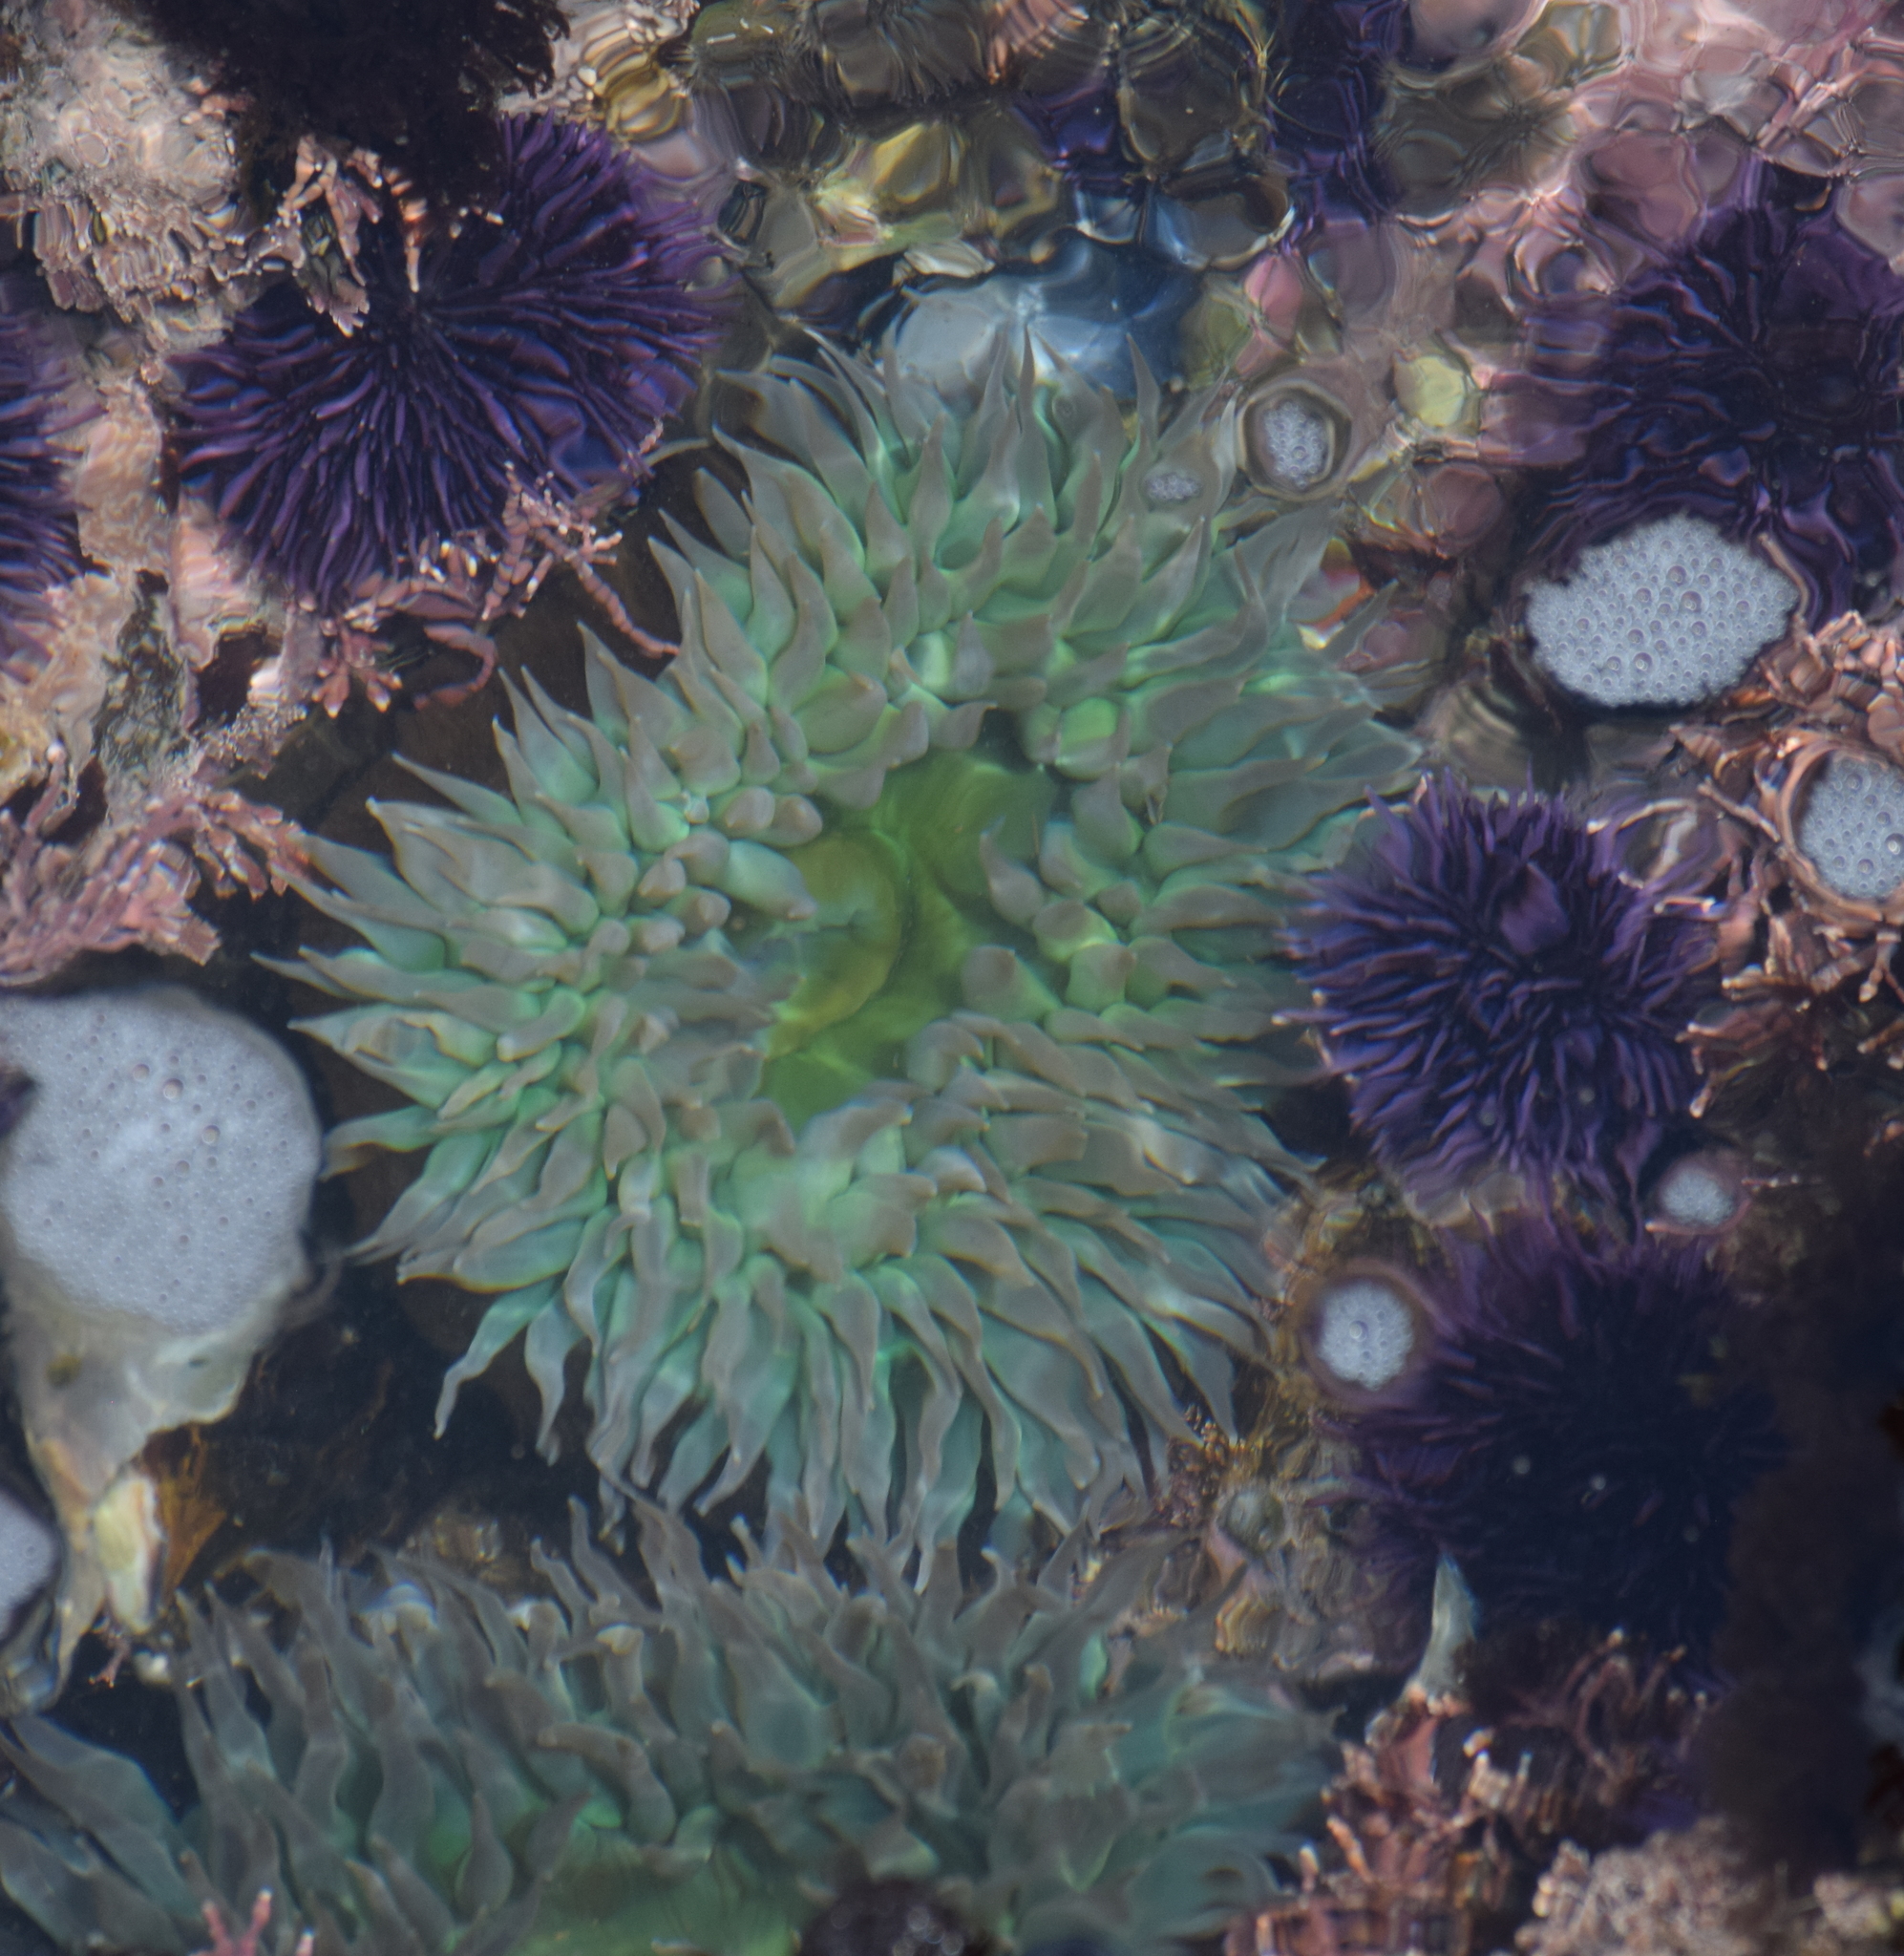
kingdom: Animalia
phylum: Cnidaria
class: Anthozoa
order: Actiniaria
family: Actiniidae
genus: Anthopleura
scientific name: Anthopleura xanthogrammica
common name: Giant green anemone
